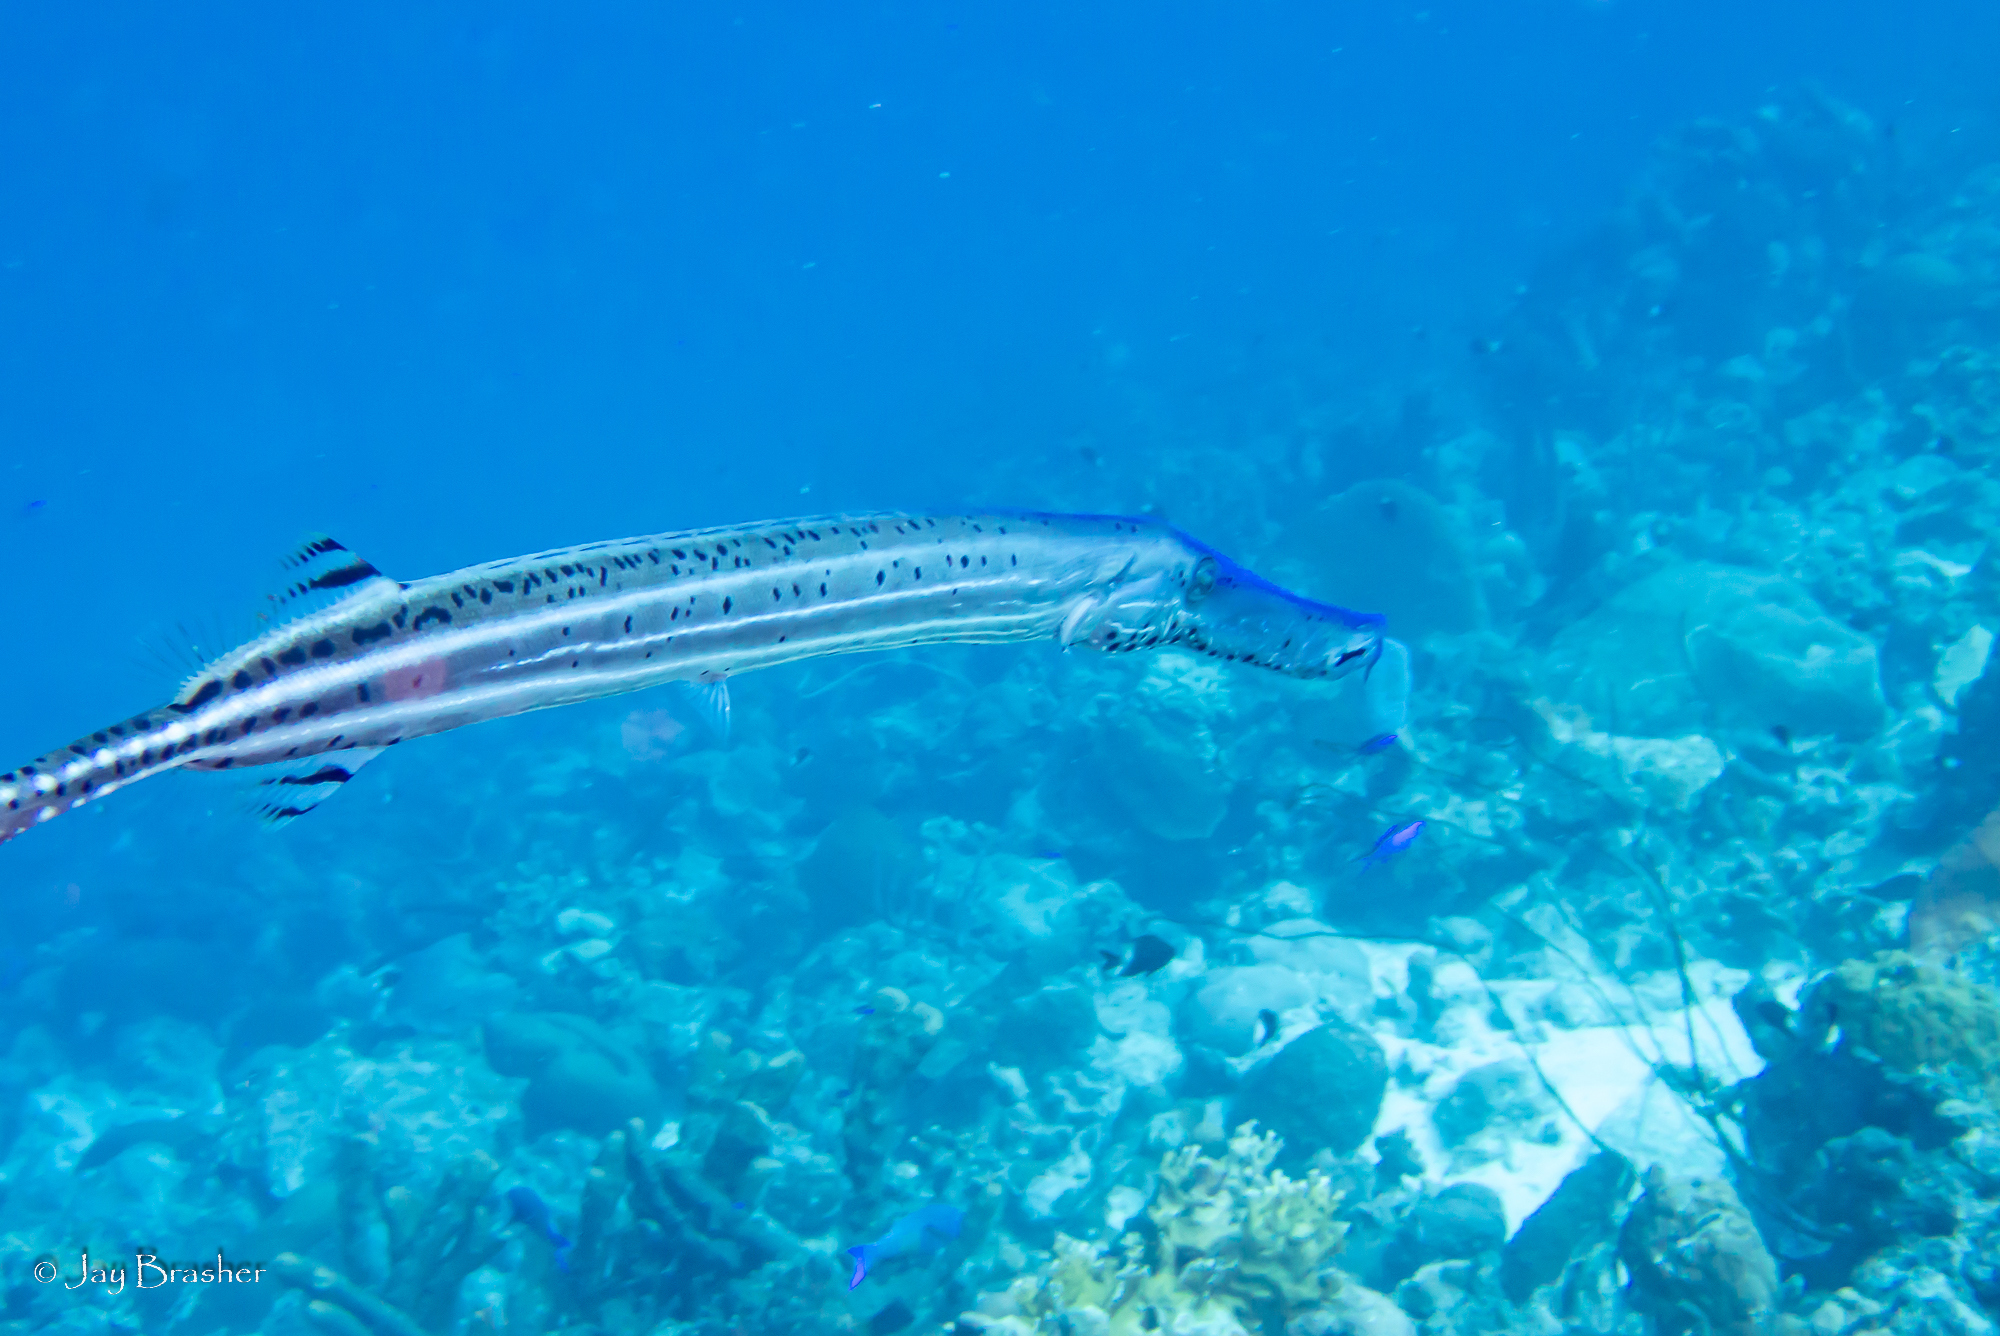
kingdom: Animalia
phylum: Chordata
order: Syngnathiformes
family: Aulostomidae
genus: Aulostomus
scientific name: Aulostomus maculatus
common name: West atlantic trumpetfish
